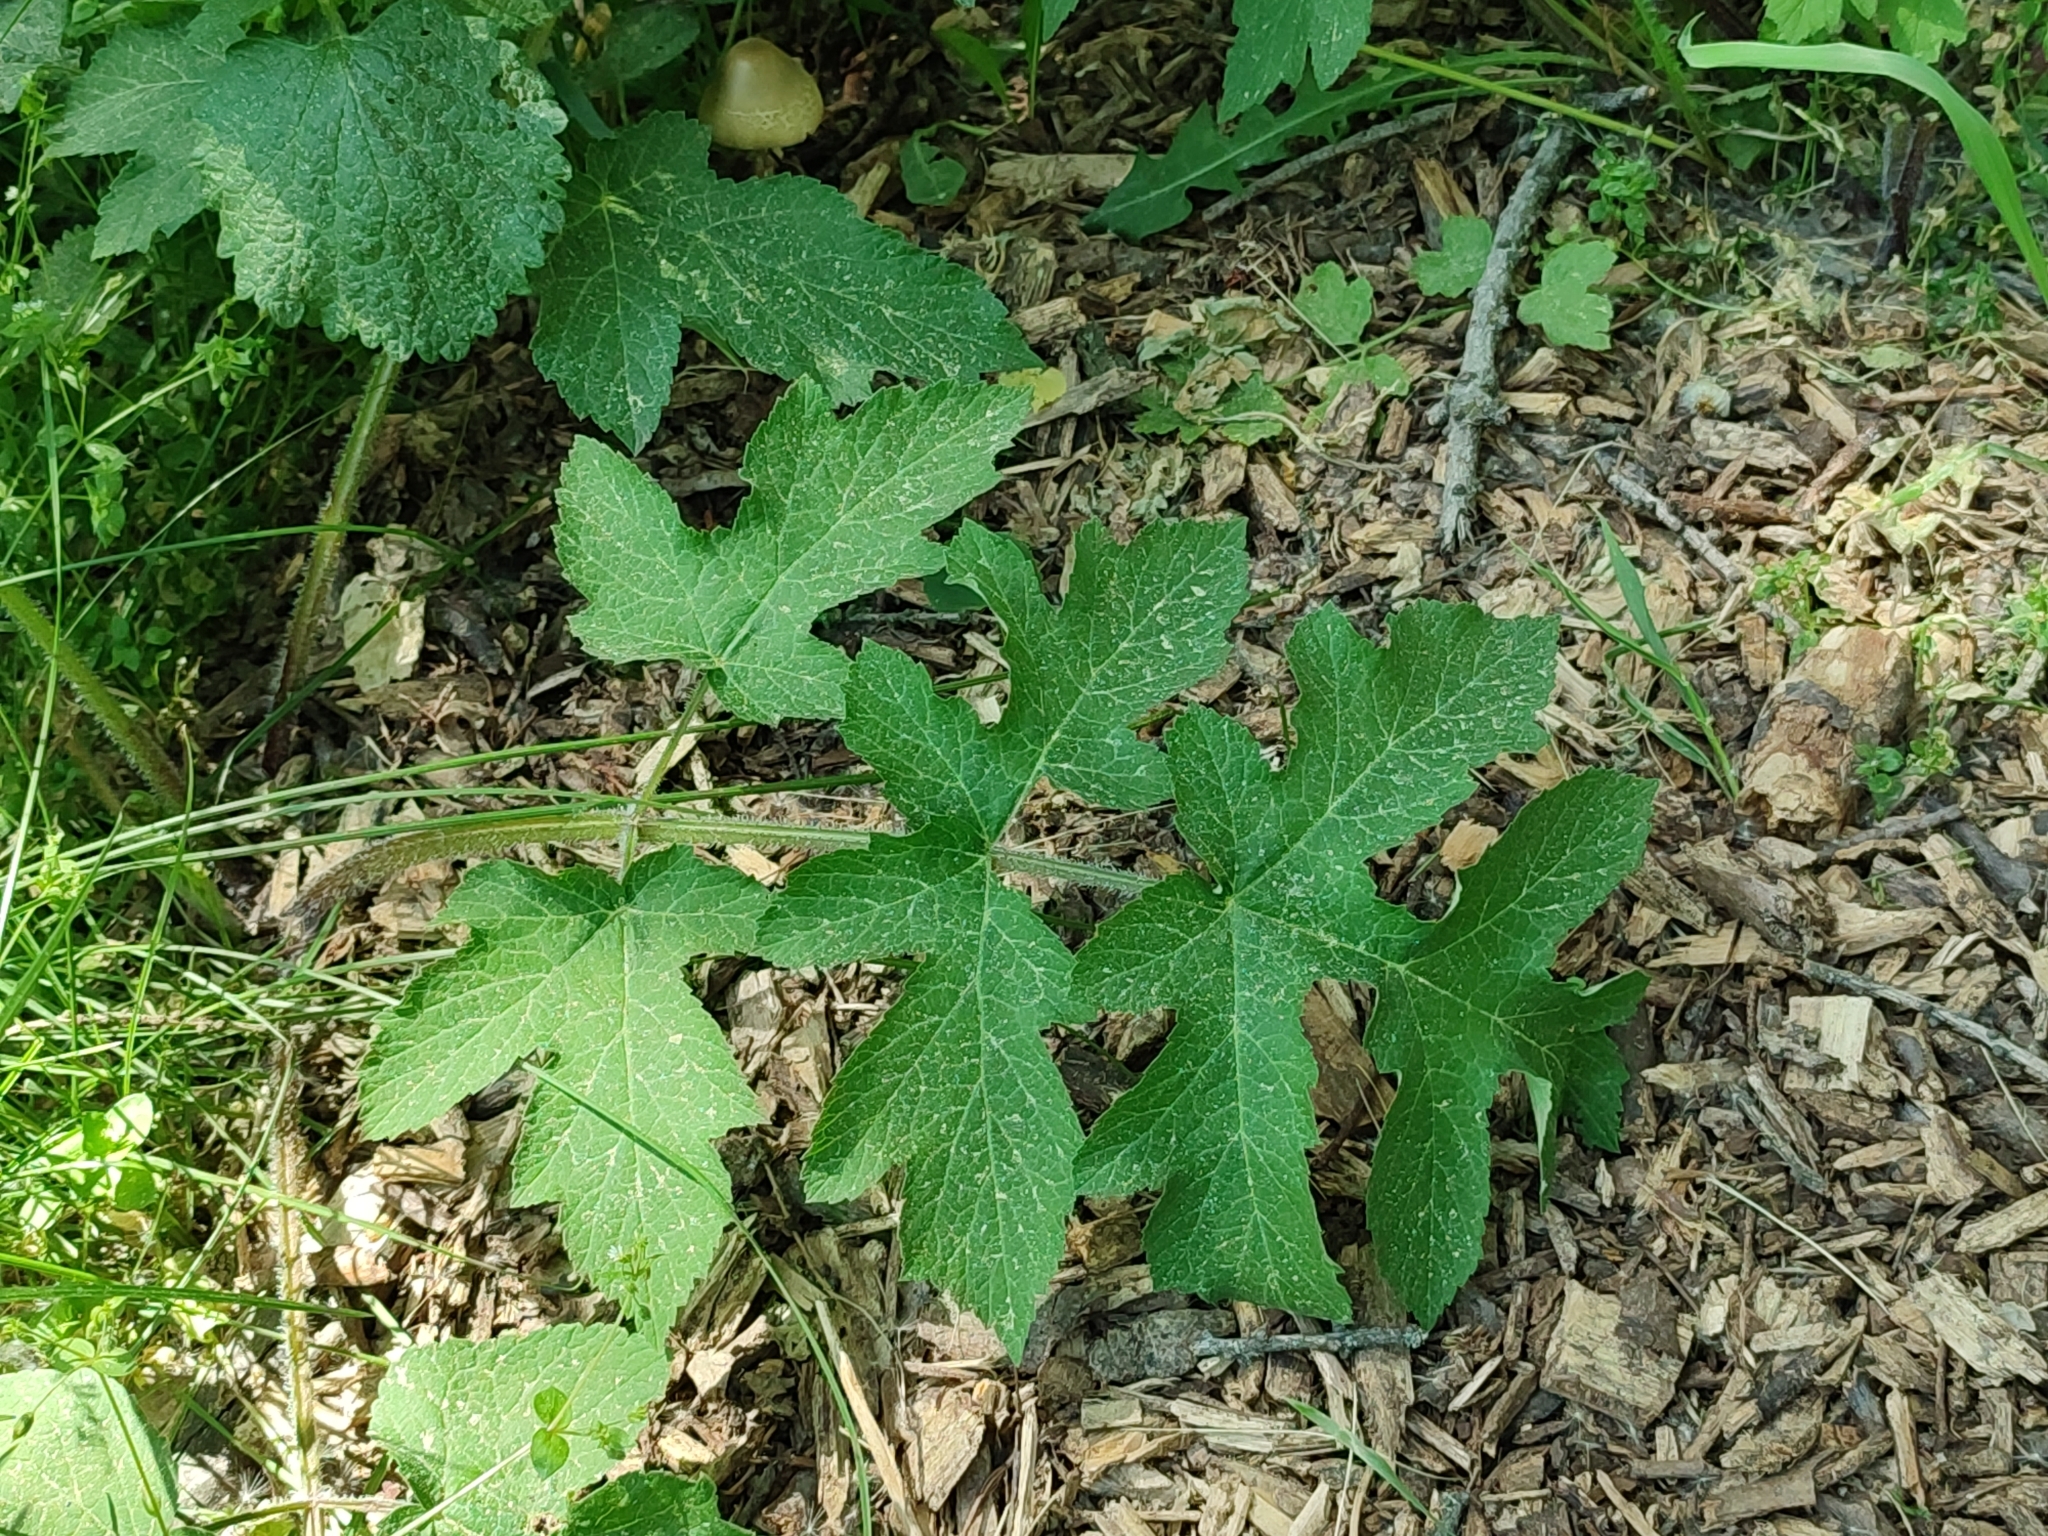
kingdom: Plantae
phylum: Tracheophyta
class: Magnoliopsida
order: Apiales
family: Apiaceae
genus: Heracleum
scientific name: Heracleum sphondylium
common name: Hogweed
